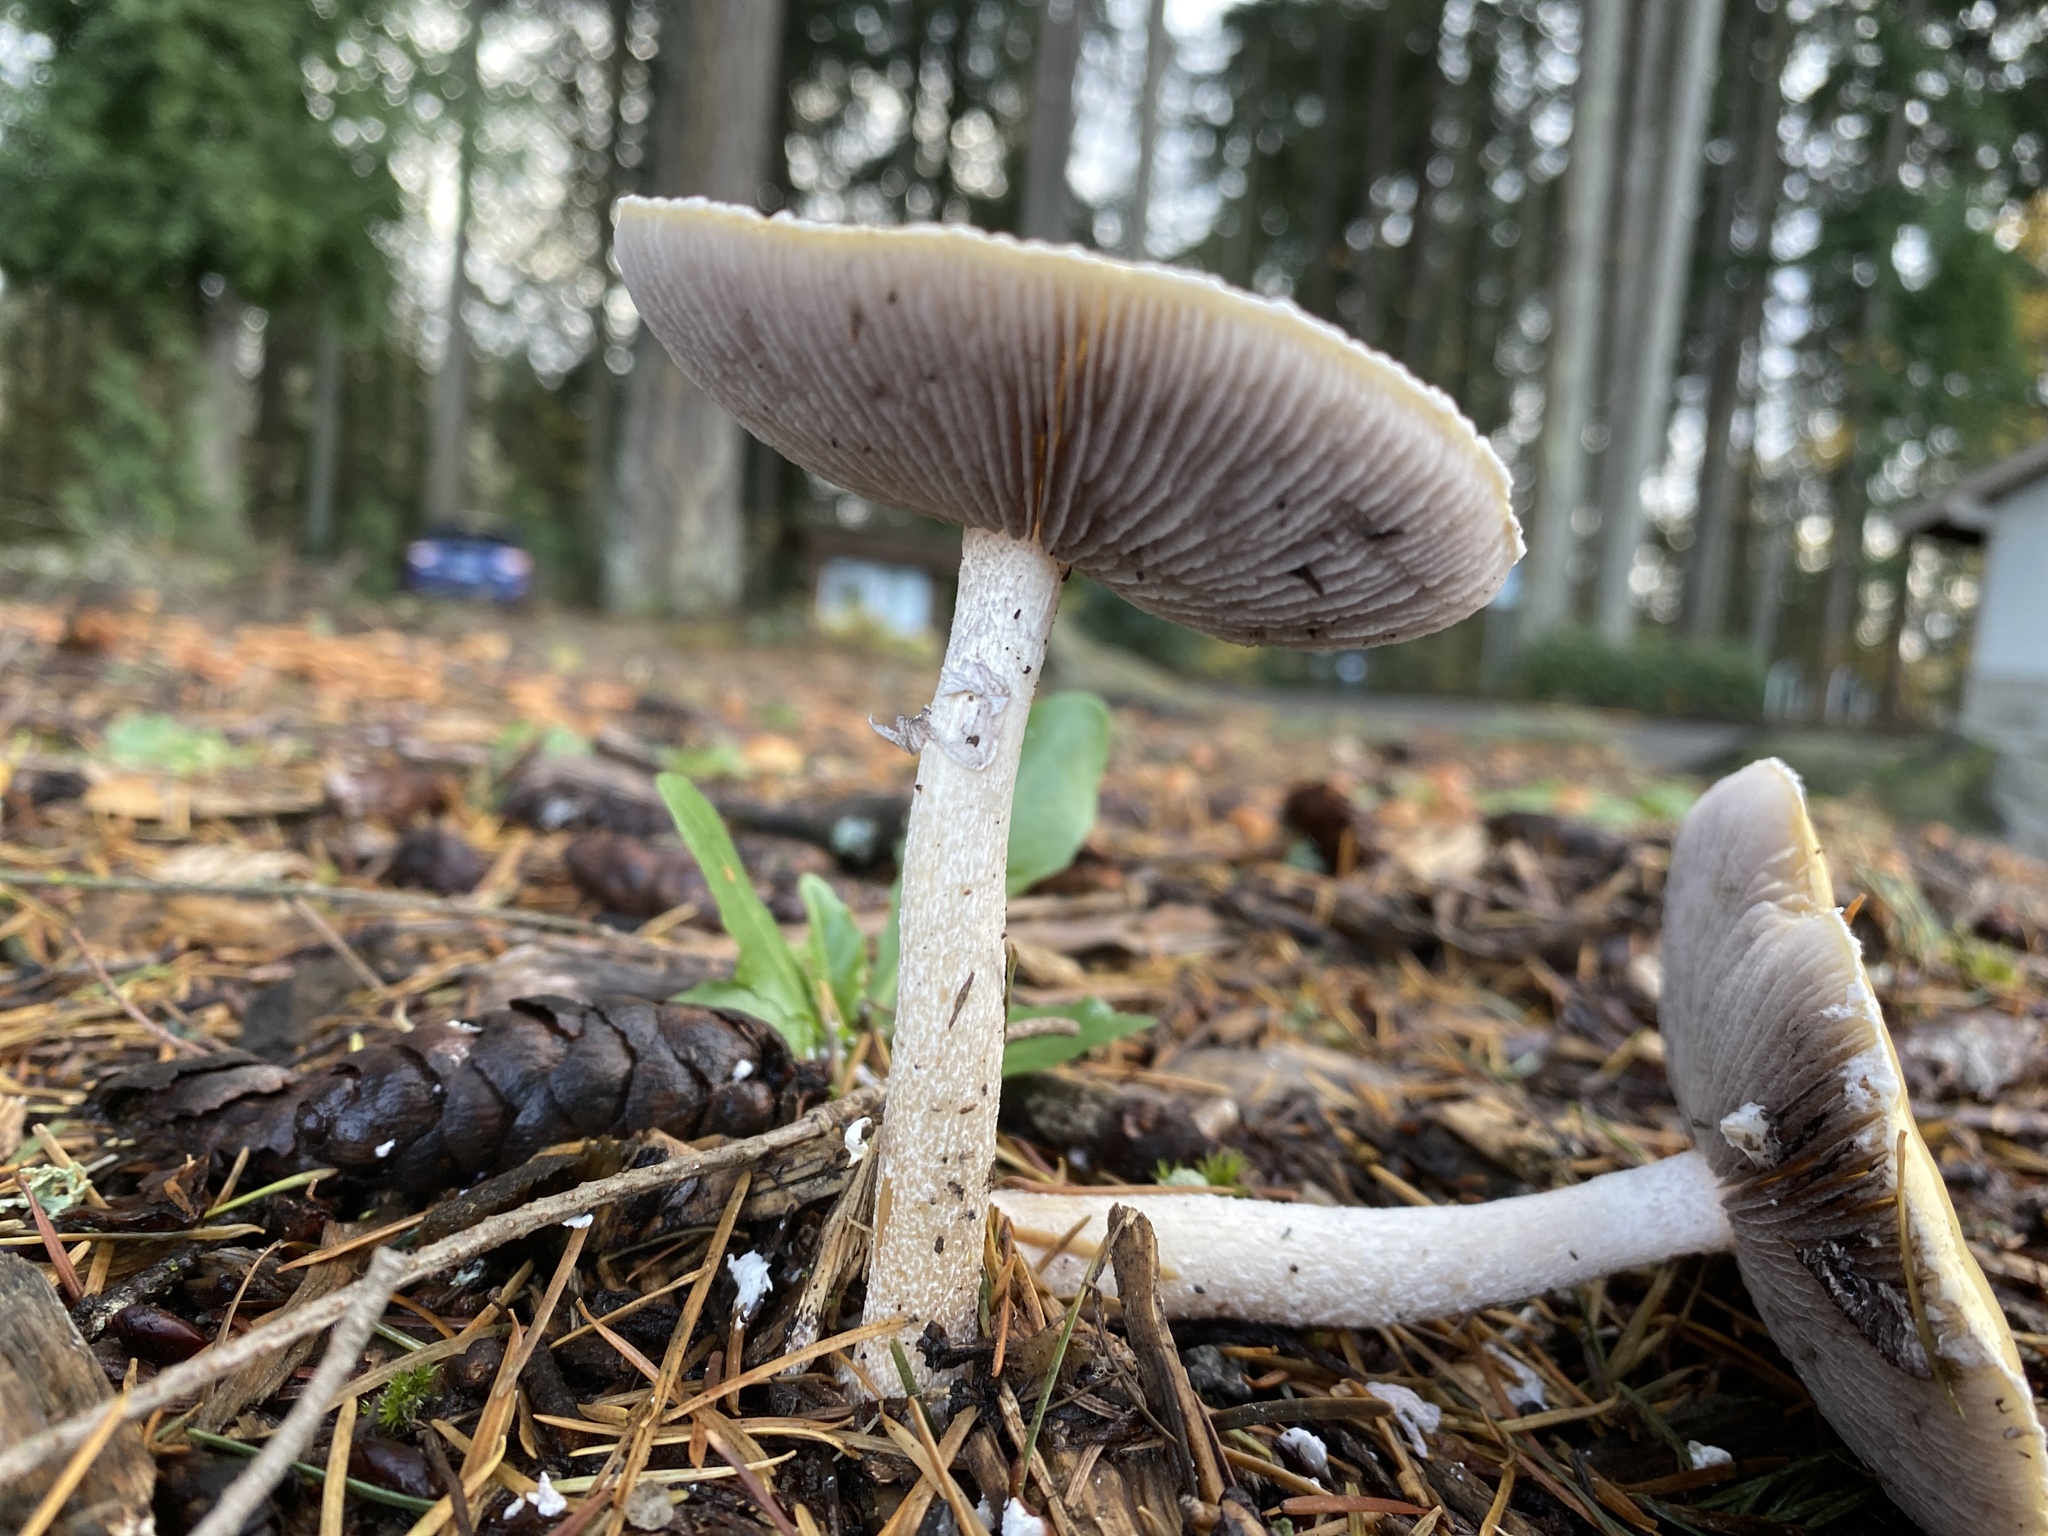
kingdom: Fungi
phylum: Basidiomycota
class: Agaricomycetes
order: Agaricales
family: Strophariaceae
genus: Stropharia
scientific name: Stropharia ambigua
